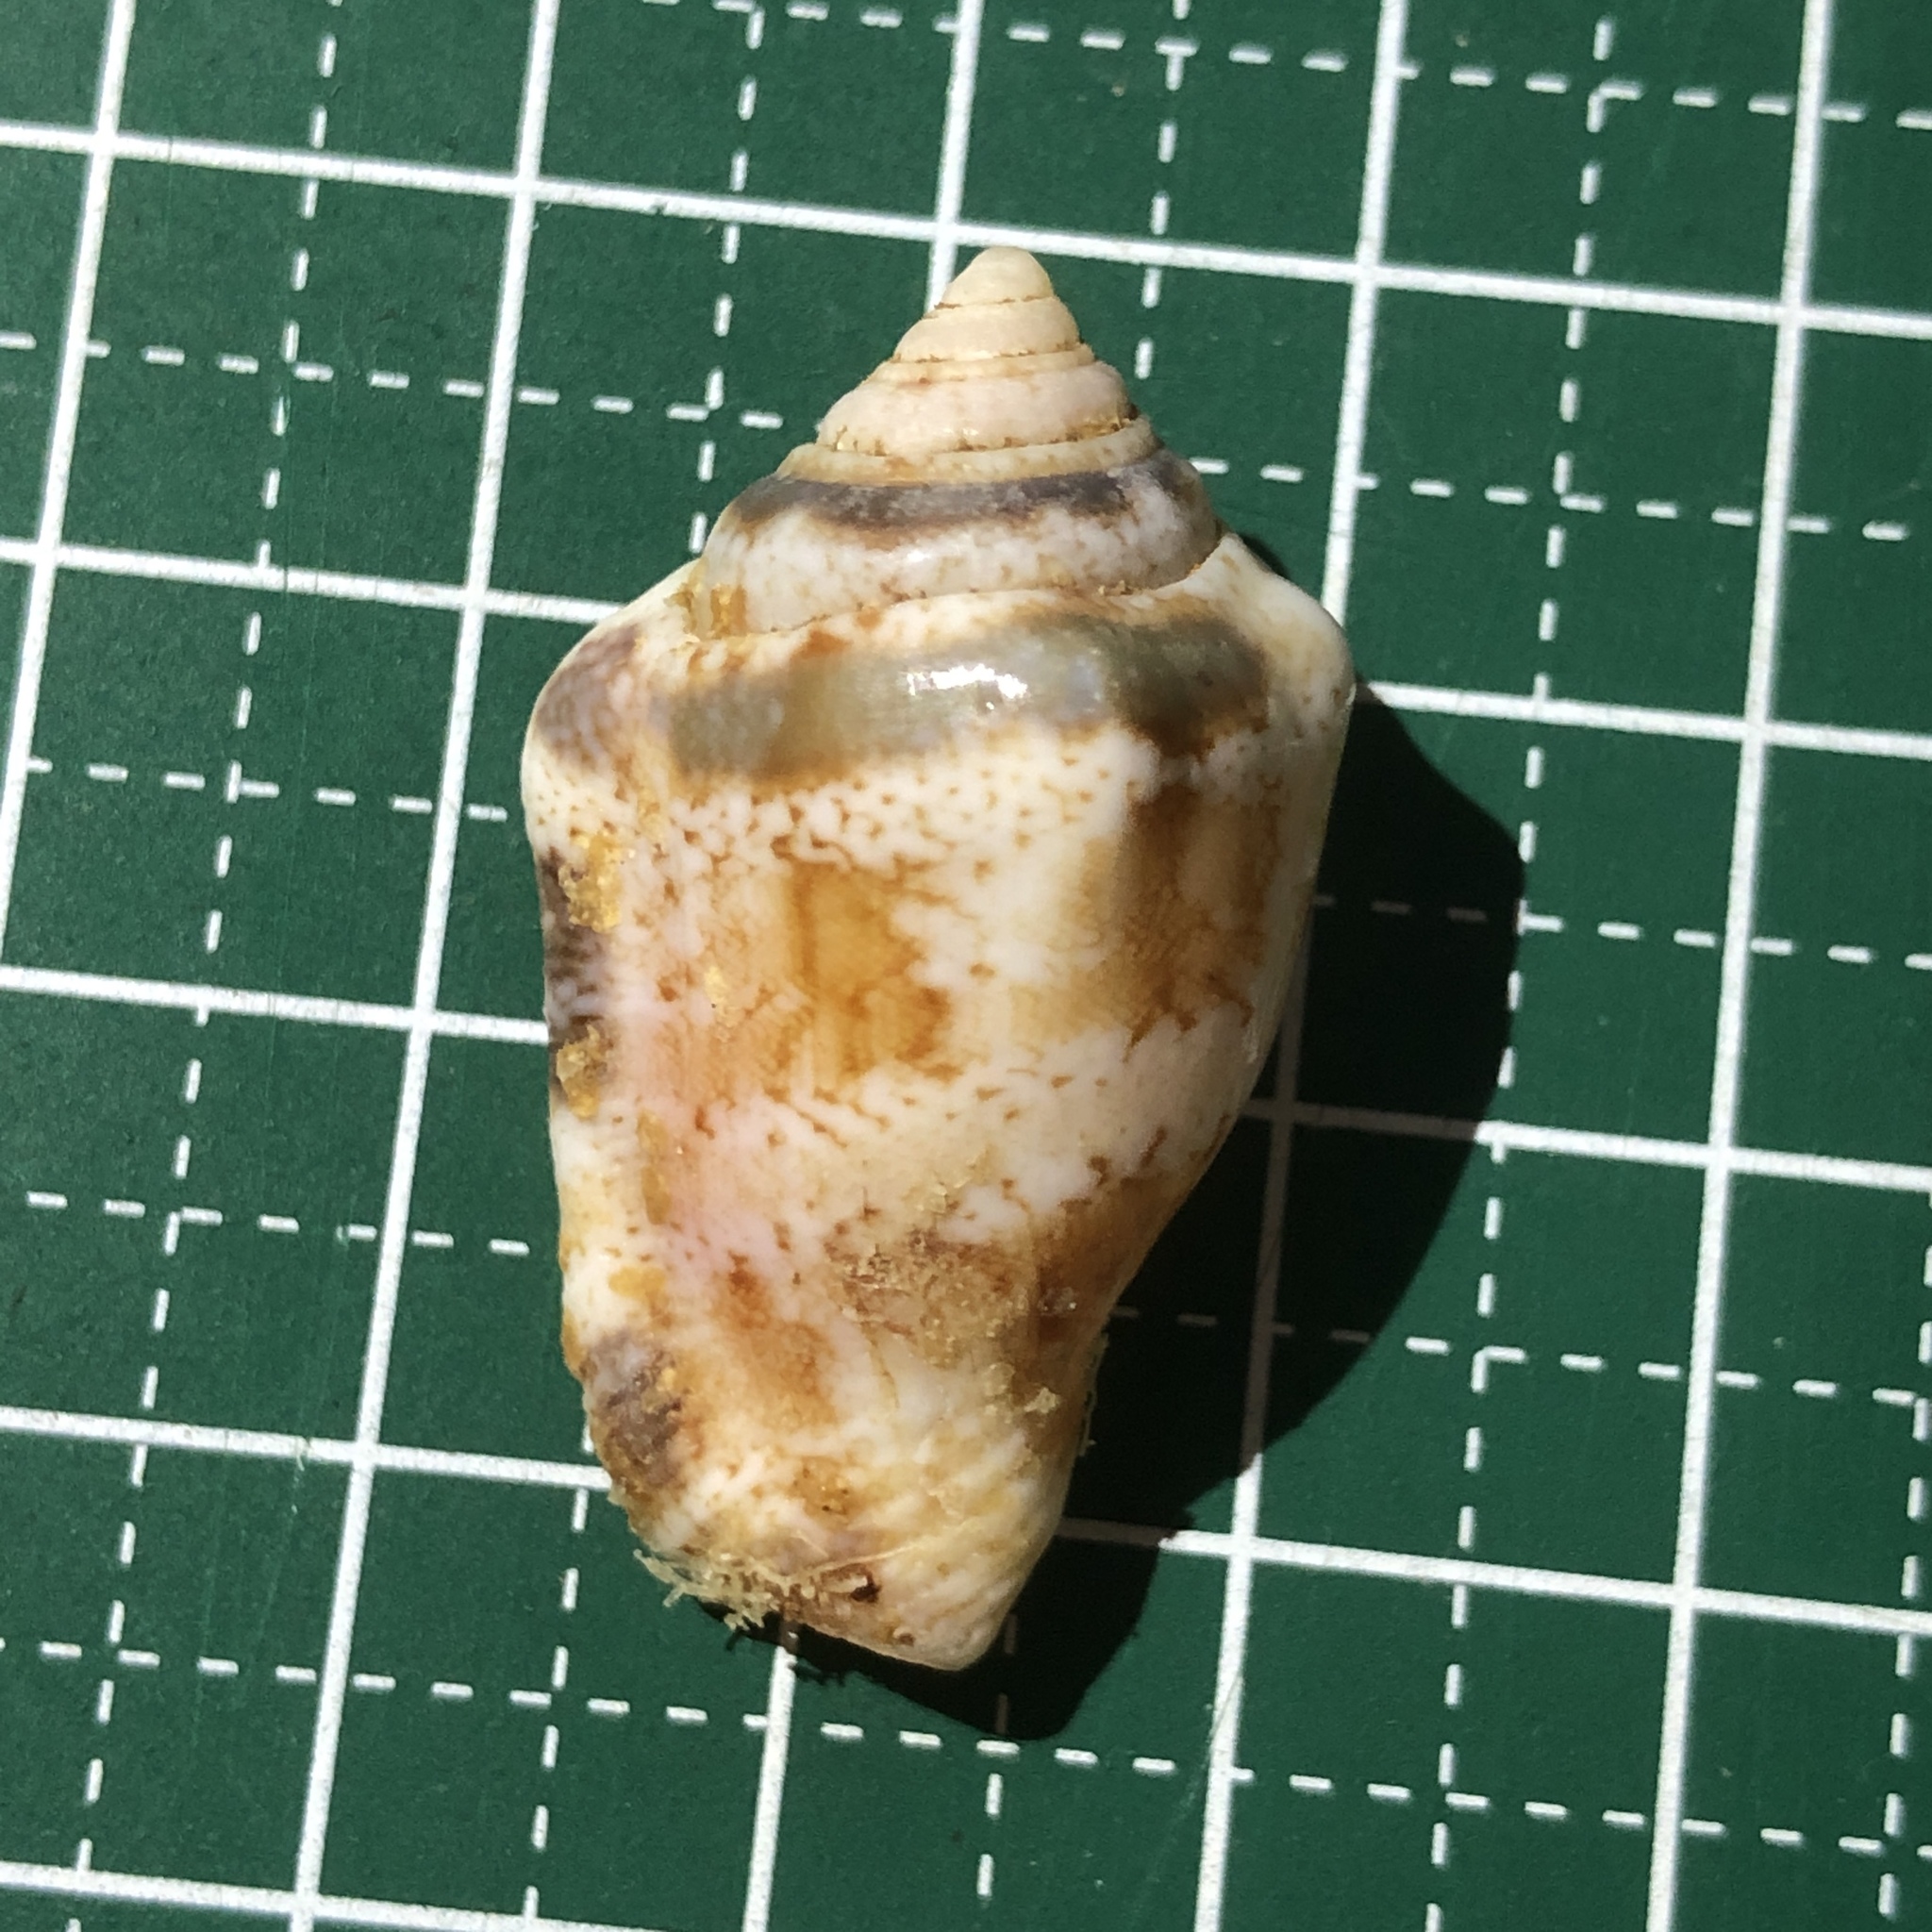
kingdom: Animalia
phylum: Mollusca
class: Gastropoda
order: Littorinimorpha
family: Strombidae
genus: Canarium
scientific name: Canarium mutabile
